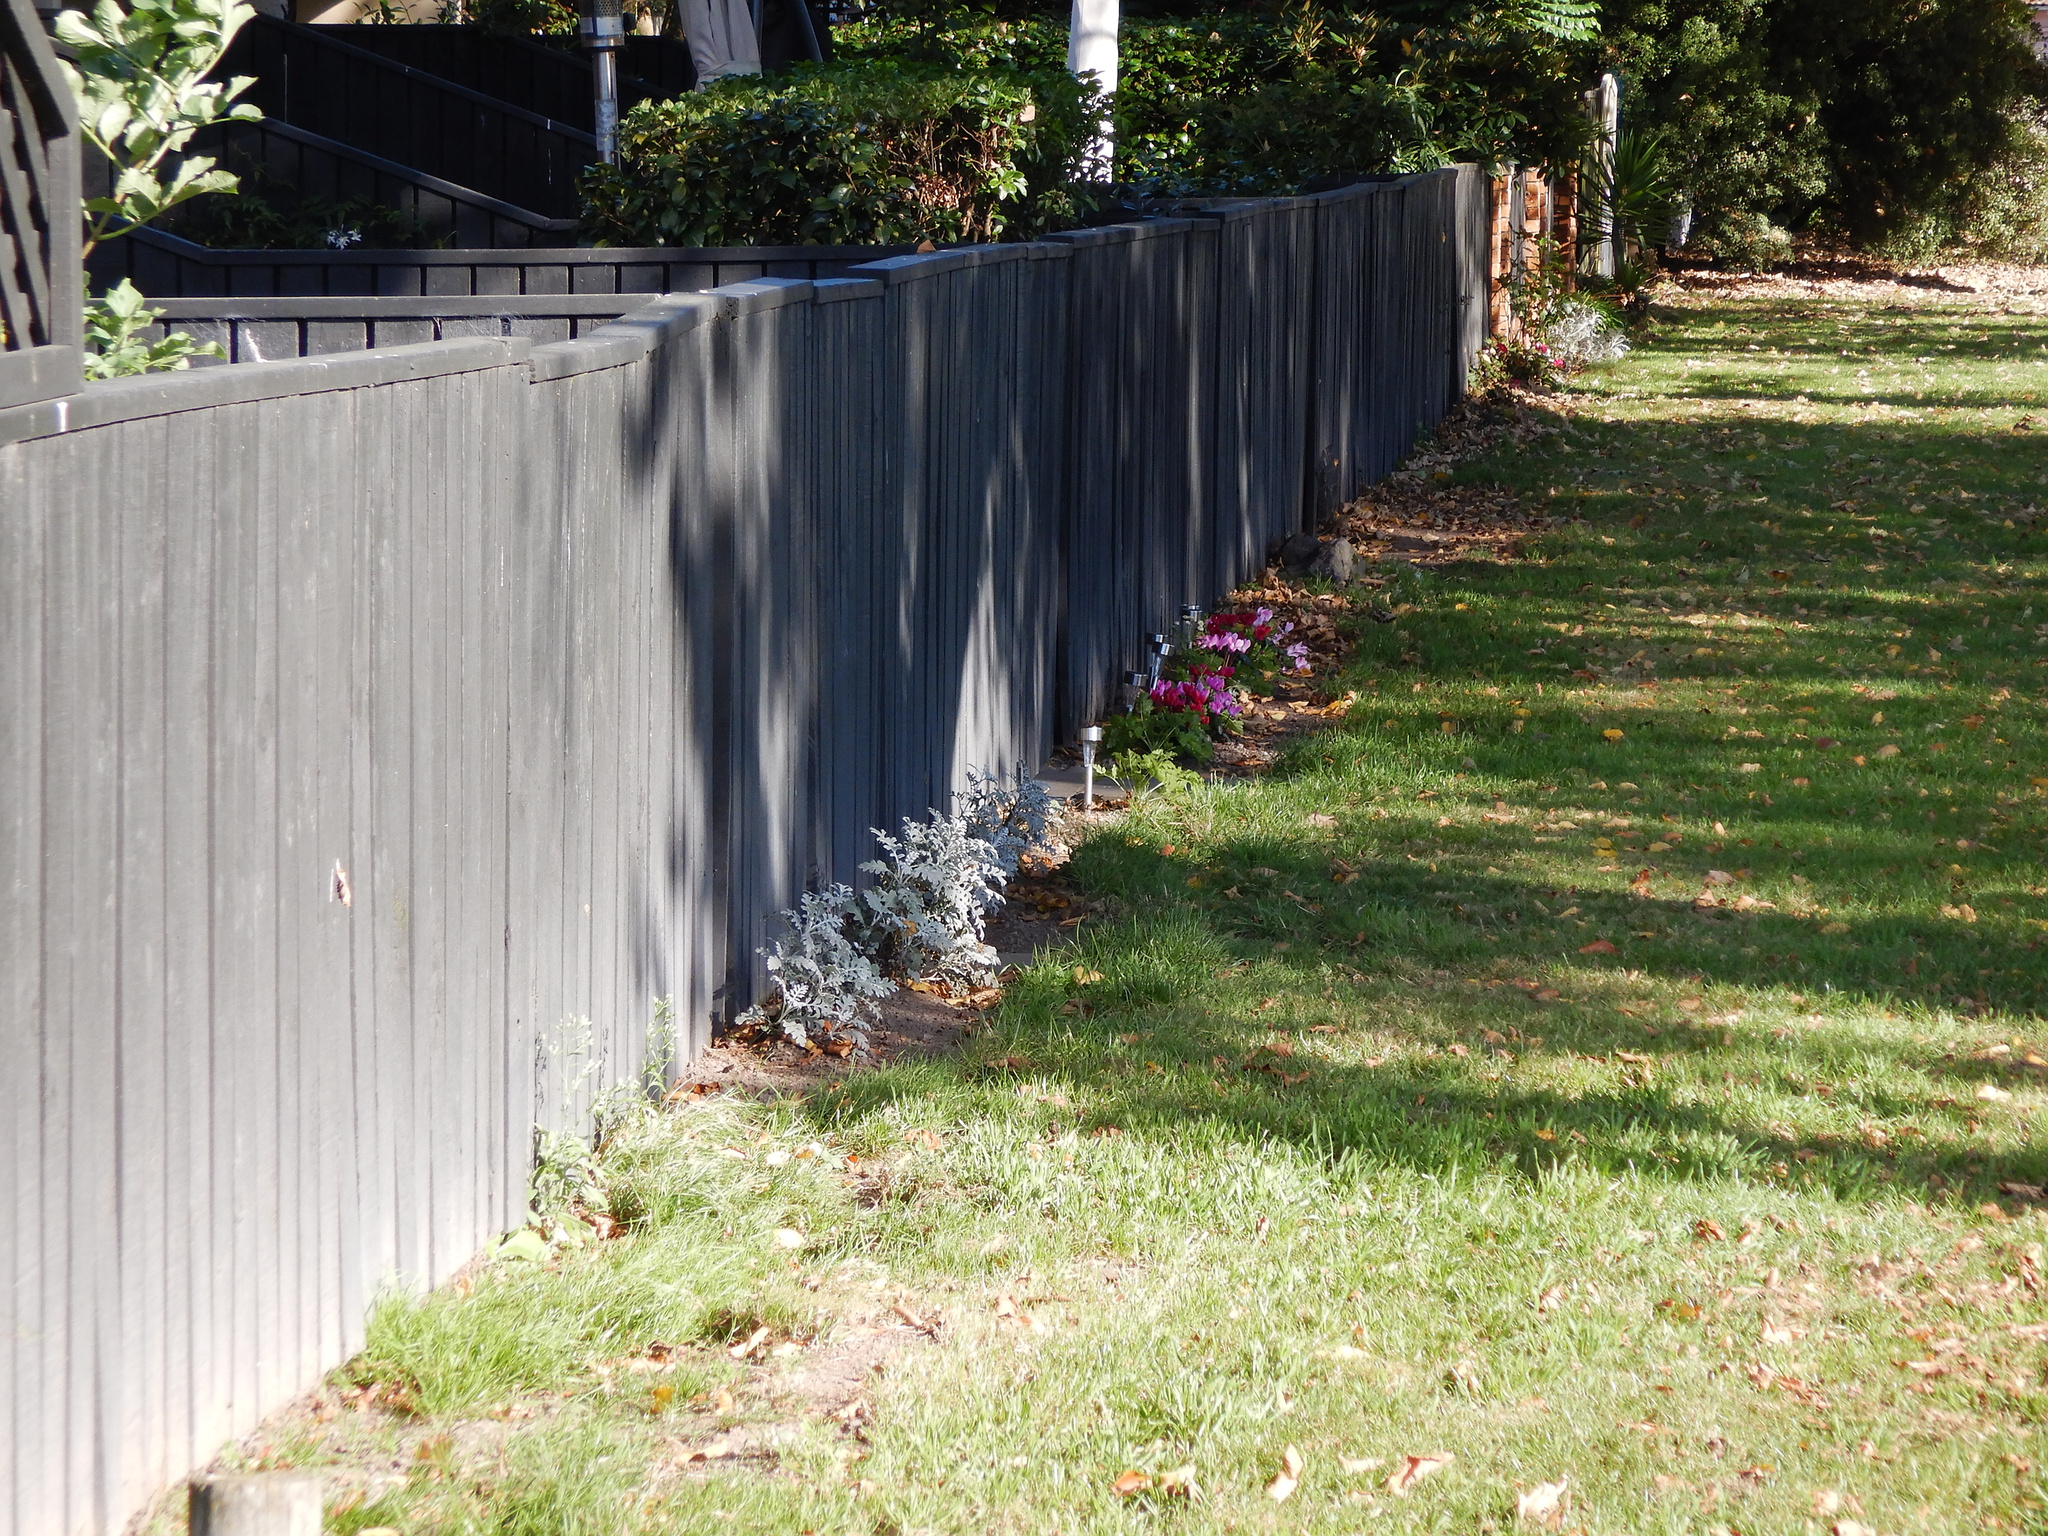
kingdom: Plantae
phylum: Tracheophyta
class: Magnoliopsida
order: Asterales
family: Asteraceae
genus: Jacobaea
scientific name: Jacobaea maritima
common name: Silver ragwort
